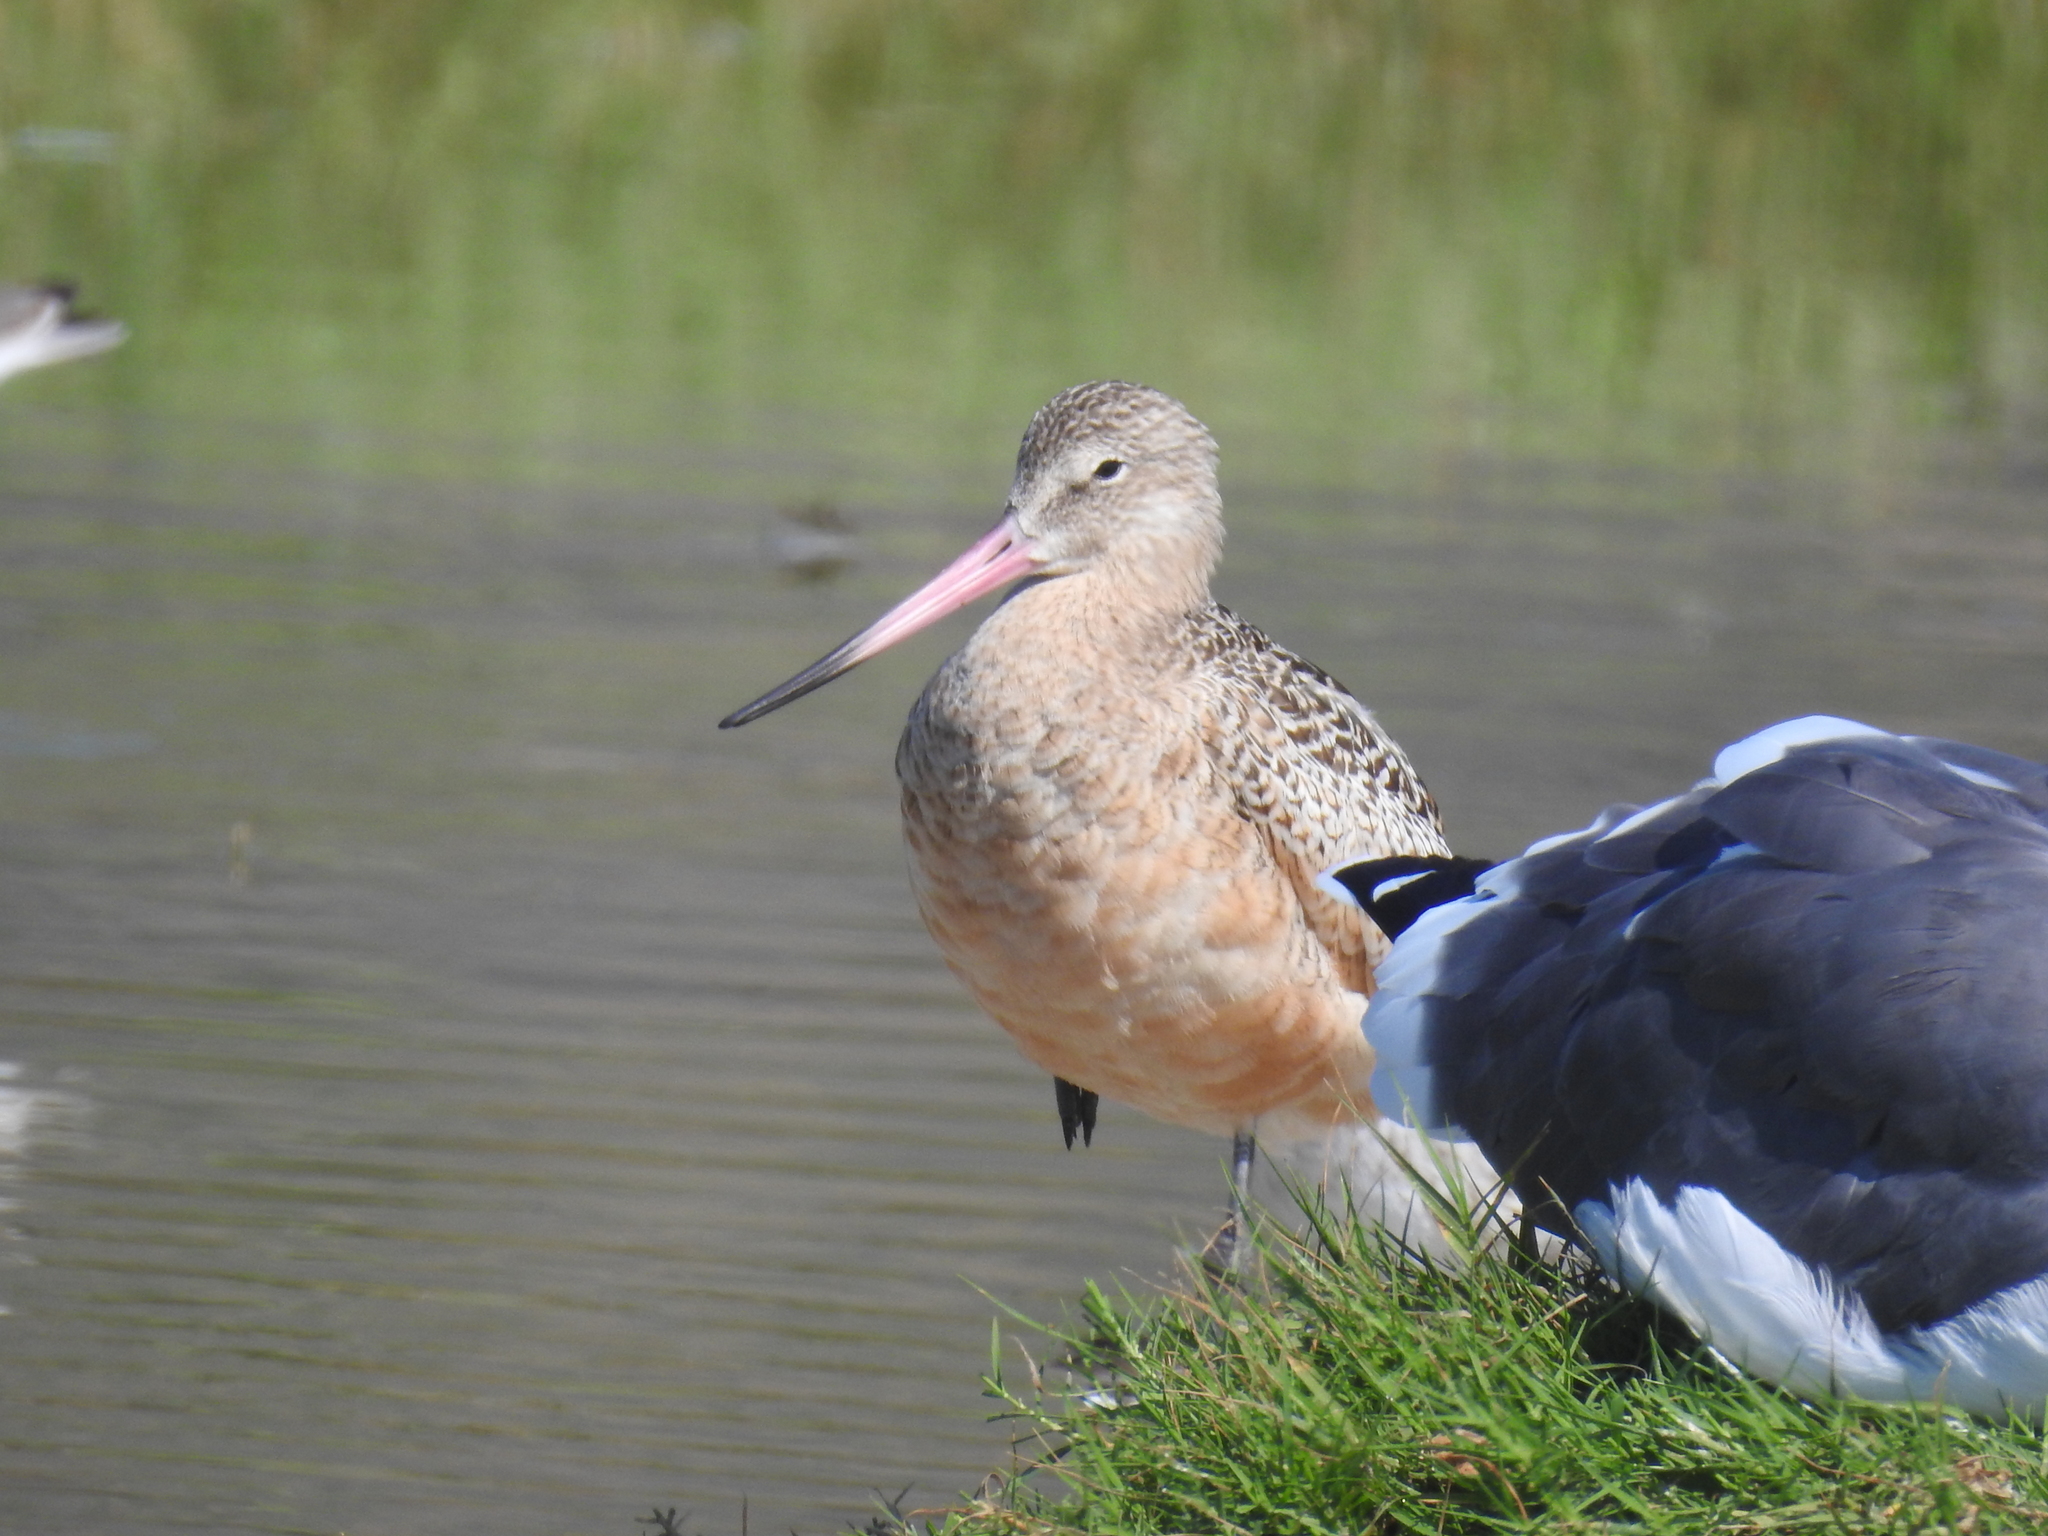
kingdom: Animalia
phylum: Chordata
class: Aves
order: Charadriiformes
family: Scolopacidae
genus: Limosa
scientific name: Limosa fedoa
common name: Marbled godwit
